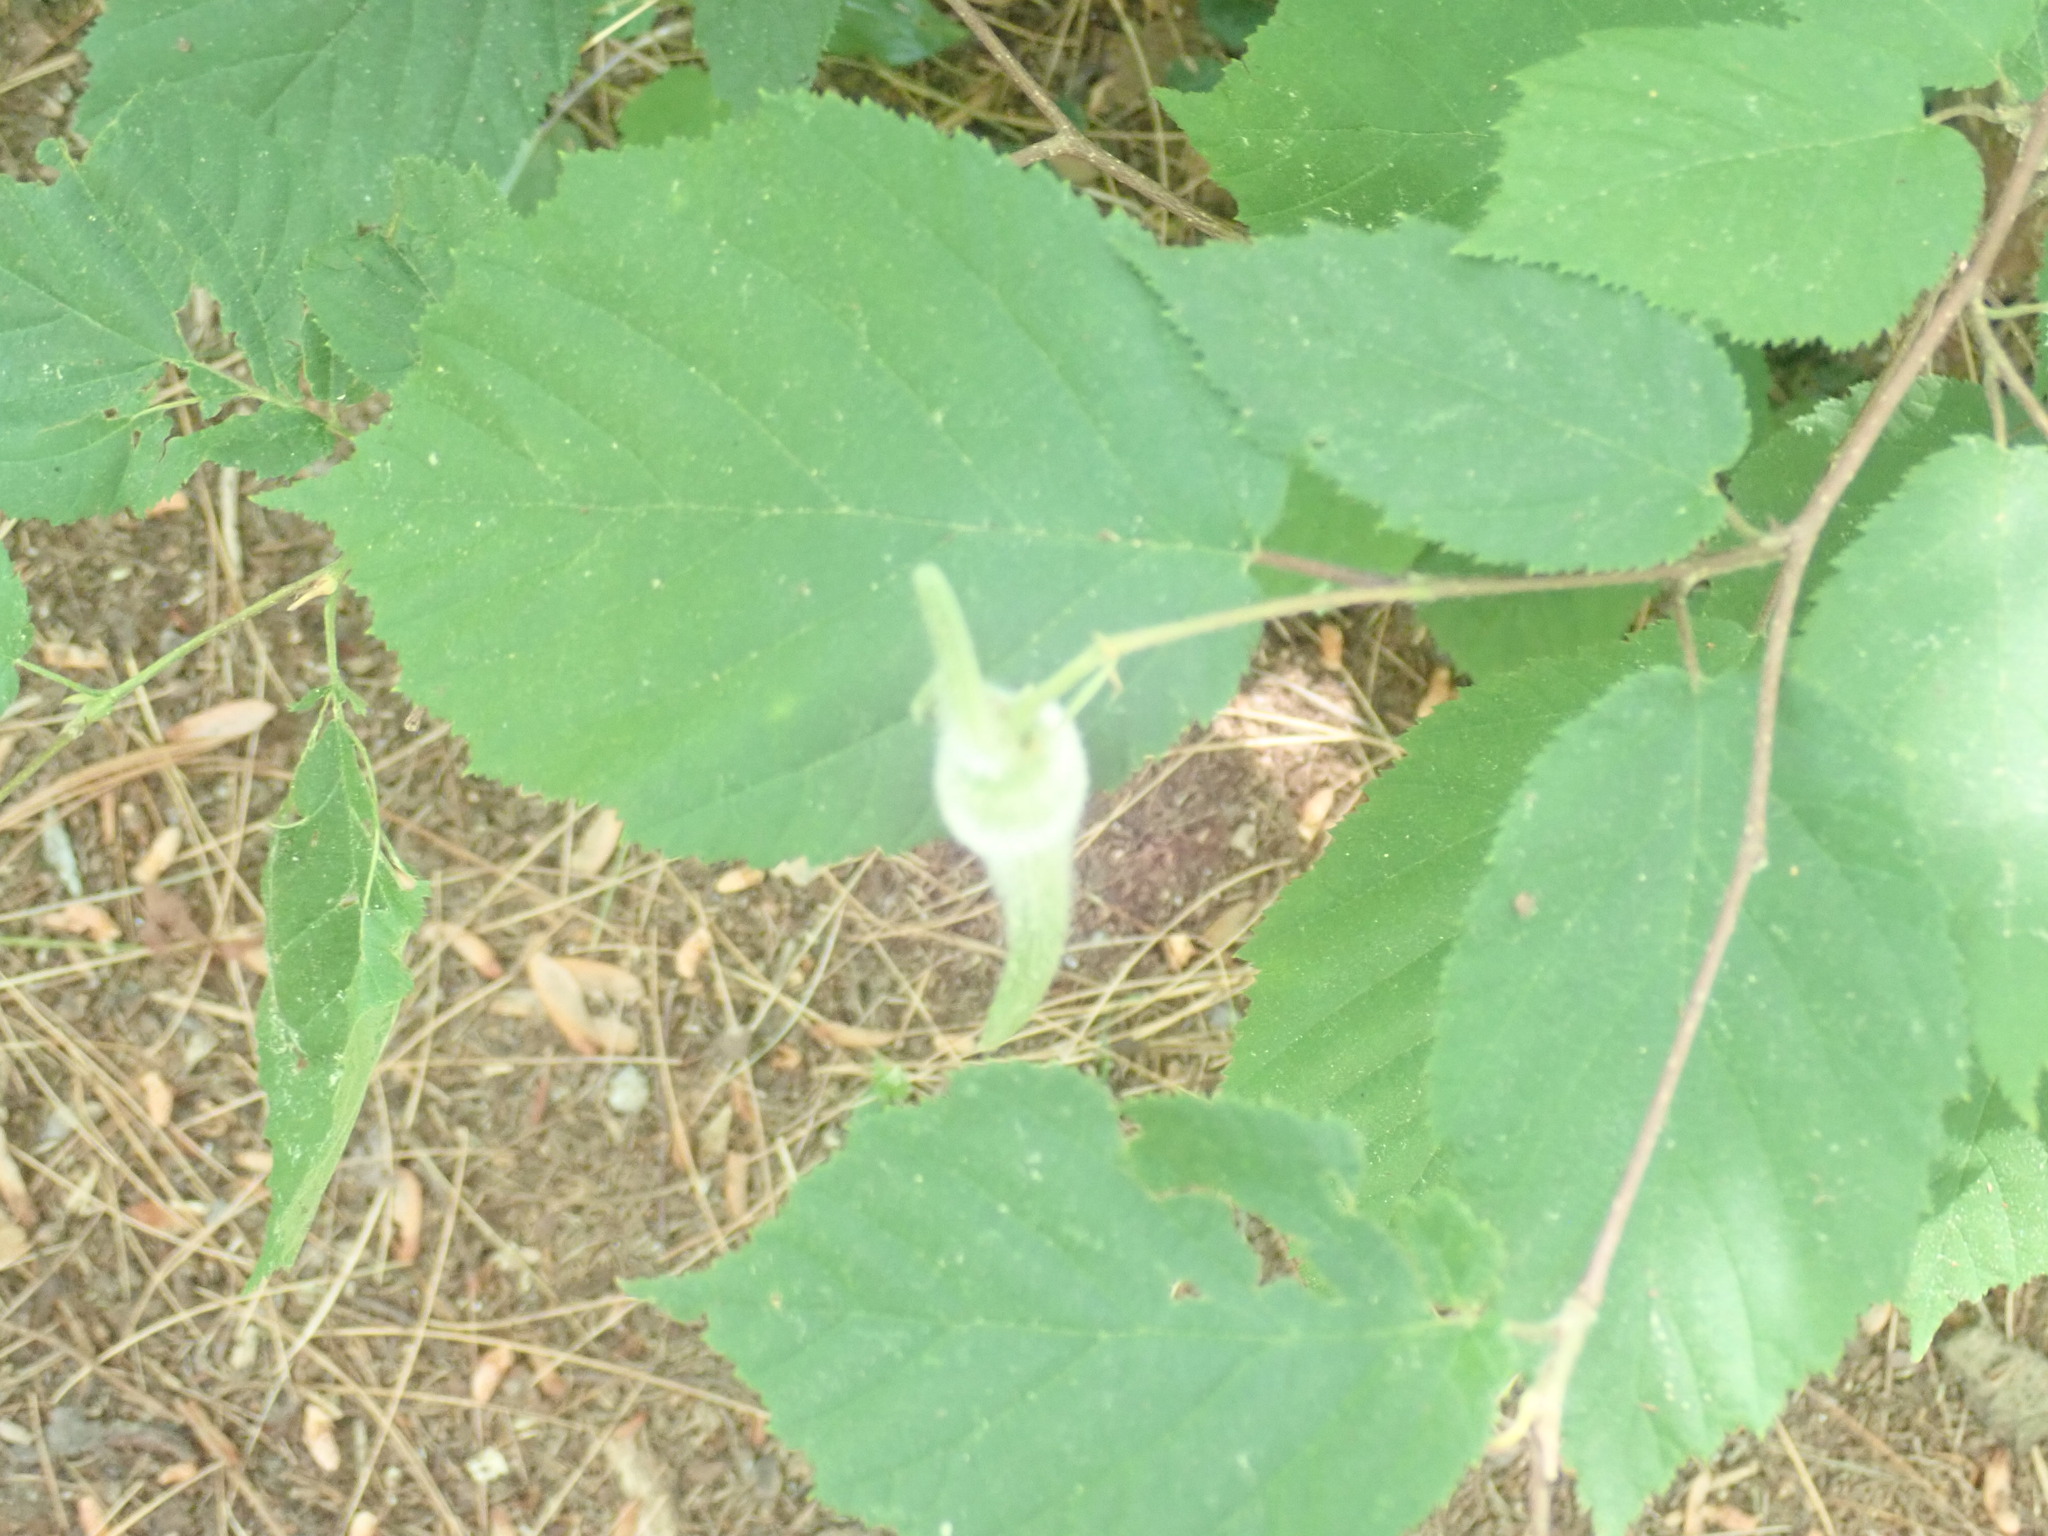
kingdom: Plantae
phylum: Tracheophyta
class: Magnoliopsida
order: Fagales
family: Betulaceae
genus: Corylus
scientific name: Corylus cornuta
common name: Beaked hazel
